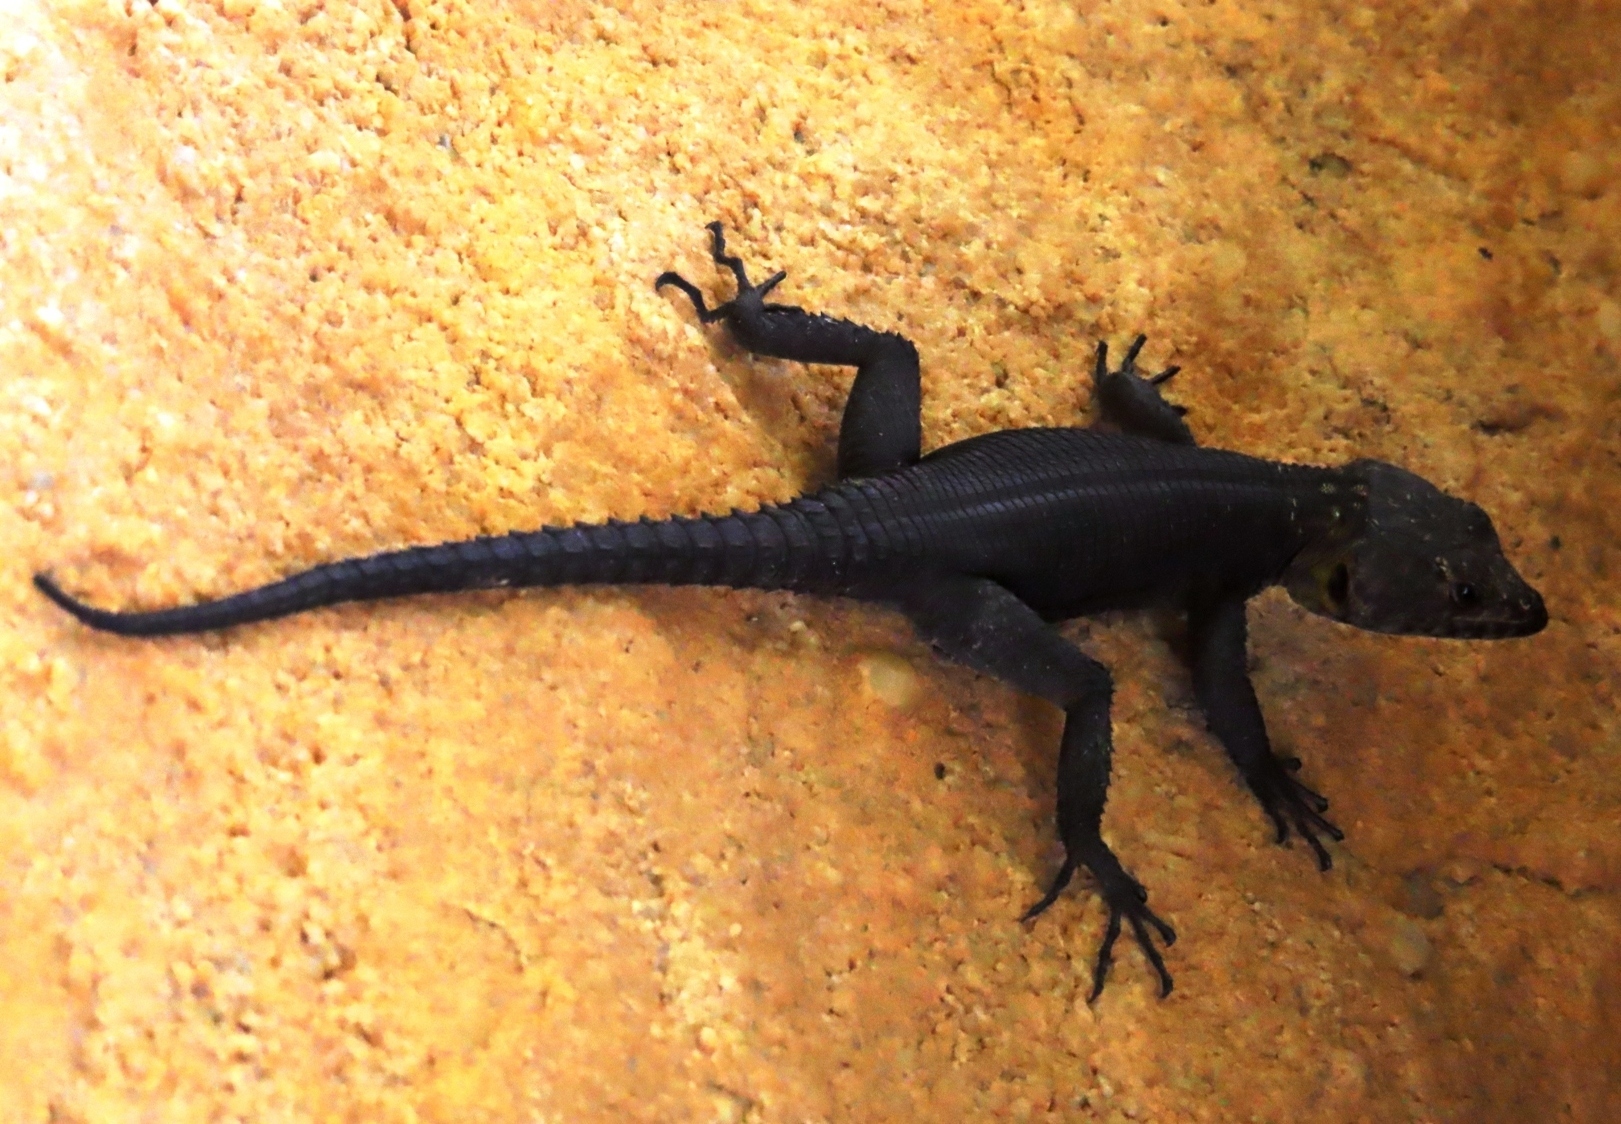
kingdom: Animalia
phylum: Chordata
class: Squamata
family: Cordylidae
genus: Hemicordylus
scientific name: Hemicordylus capensis
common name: Graceful crag lizard
